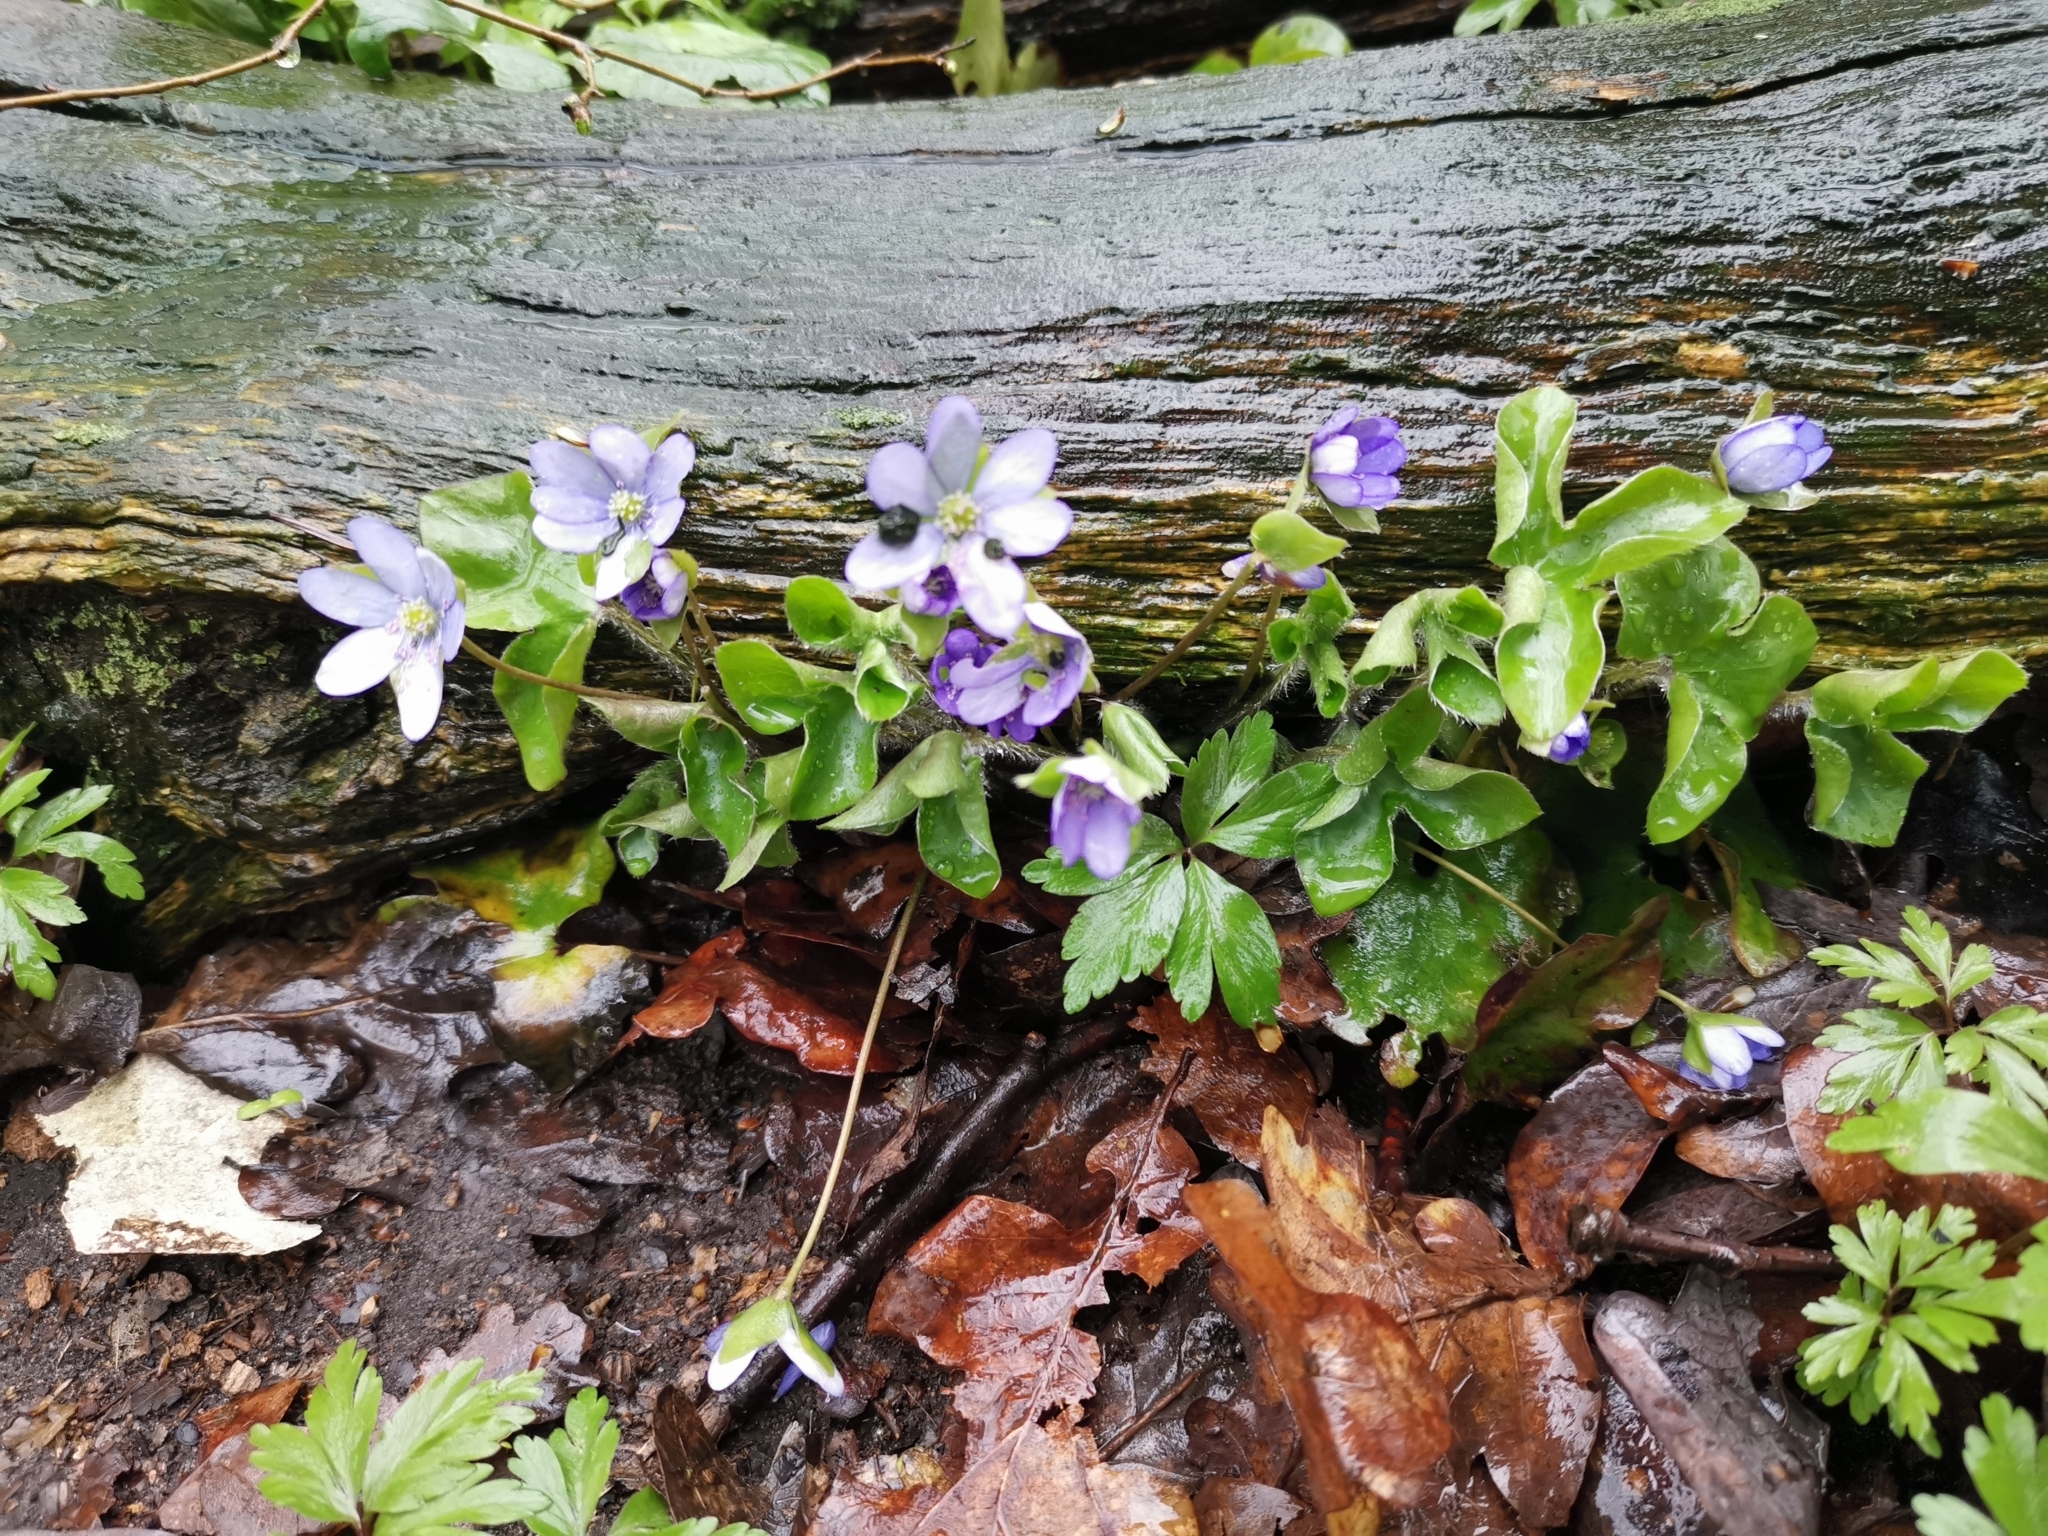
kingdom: Plantae
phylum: Tracheophyta
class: Magnoliopsida
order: Ranunculales
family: Ranunculaceae
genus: Hepatica
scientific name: Hepatica nobilis
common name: Liverleaf
